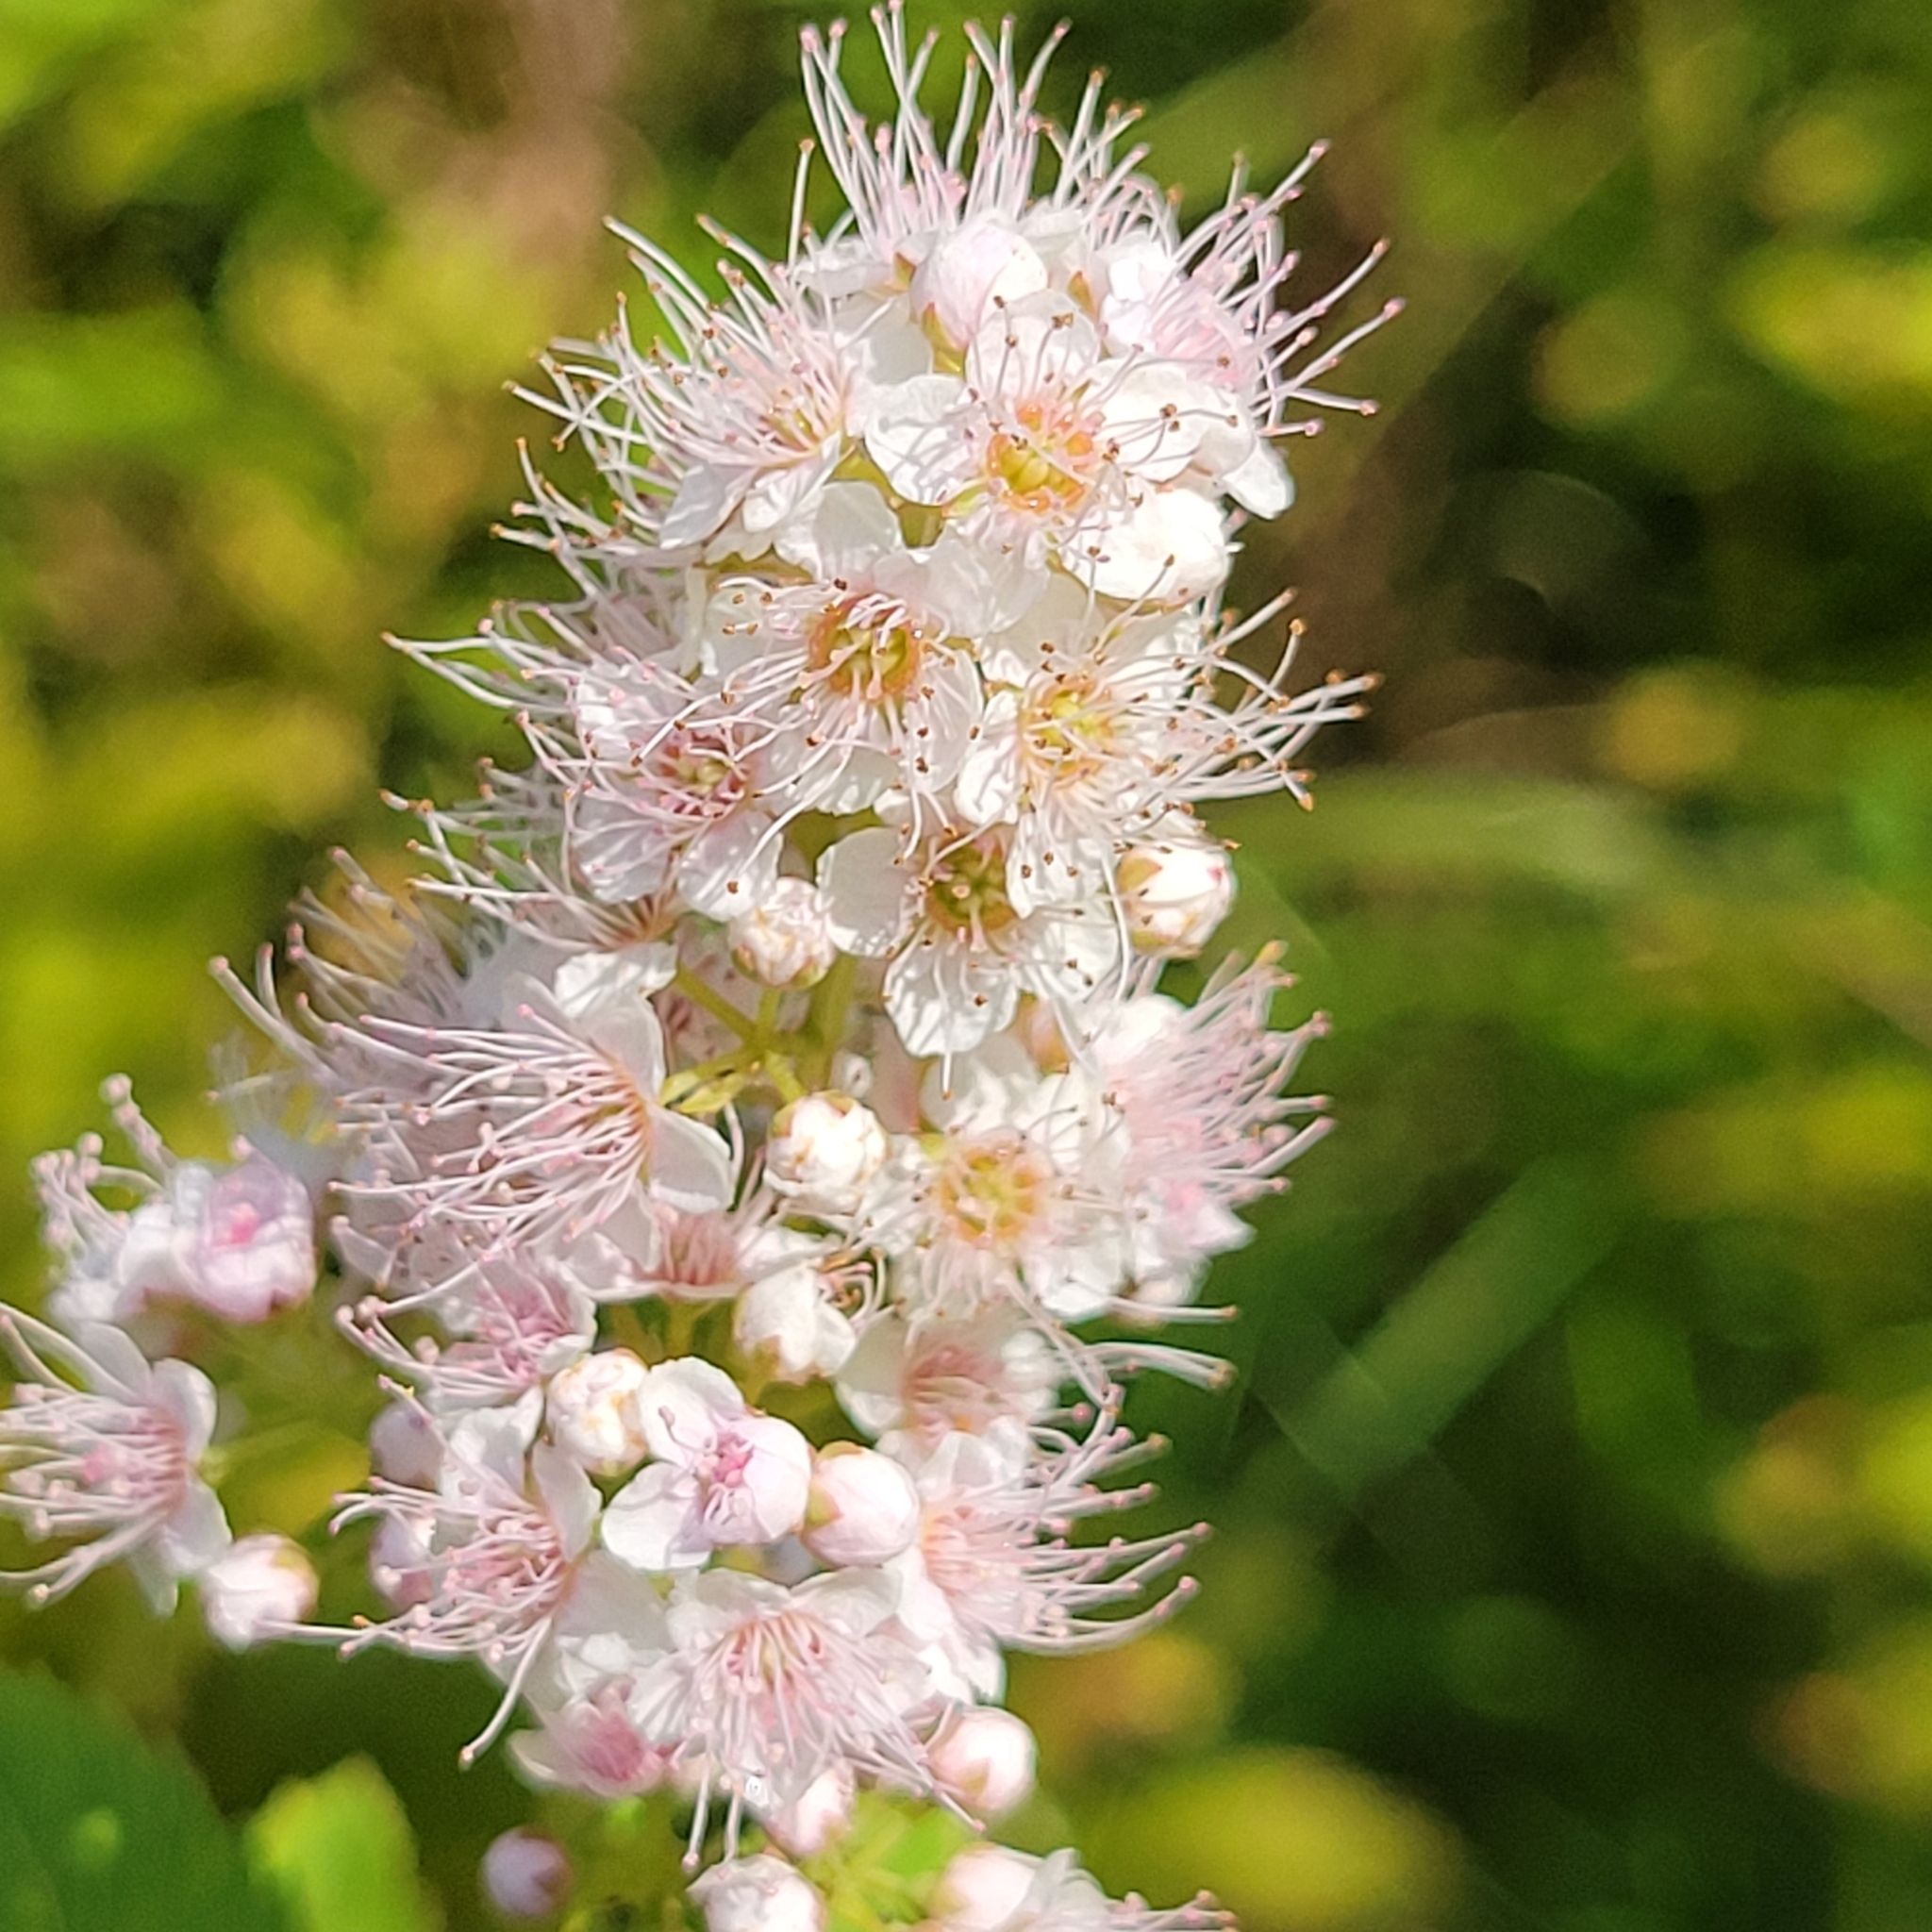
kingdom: Plantae
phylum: Tracheophyta
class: Magnoliopsida
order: Rosales
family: Rosaceae
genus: Spiraea
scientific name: Spiraea alba
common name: Pale bridewort
